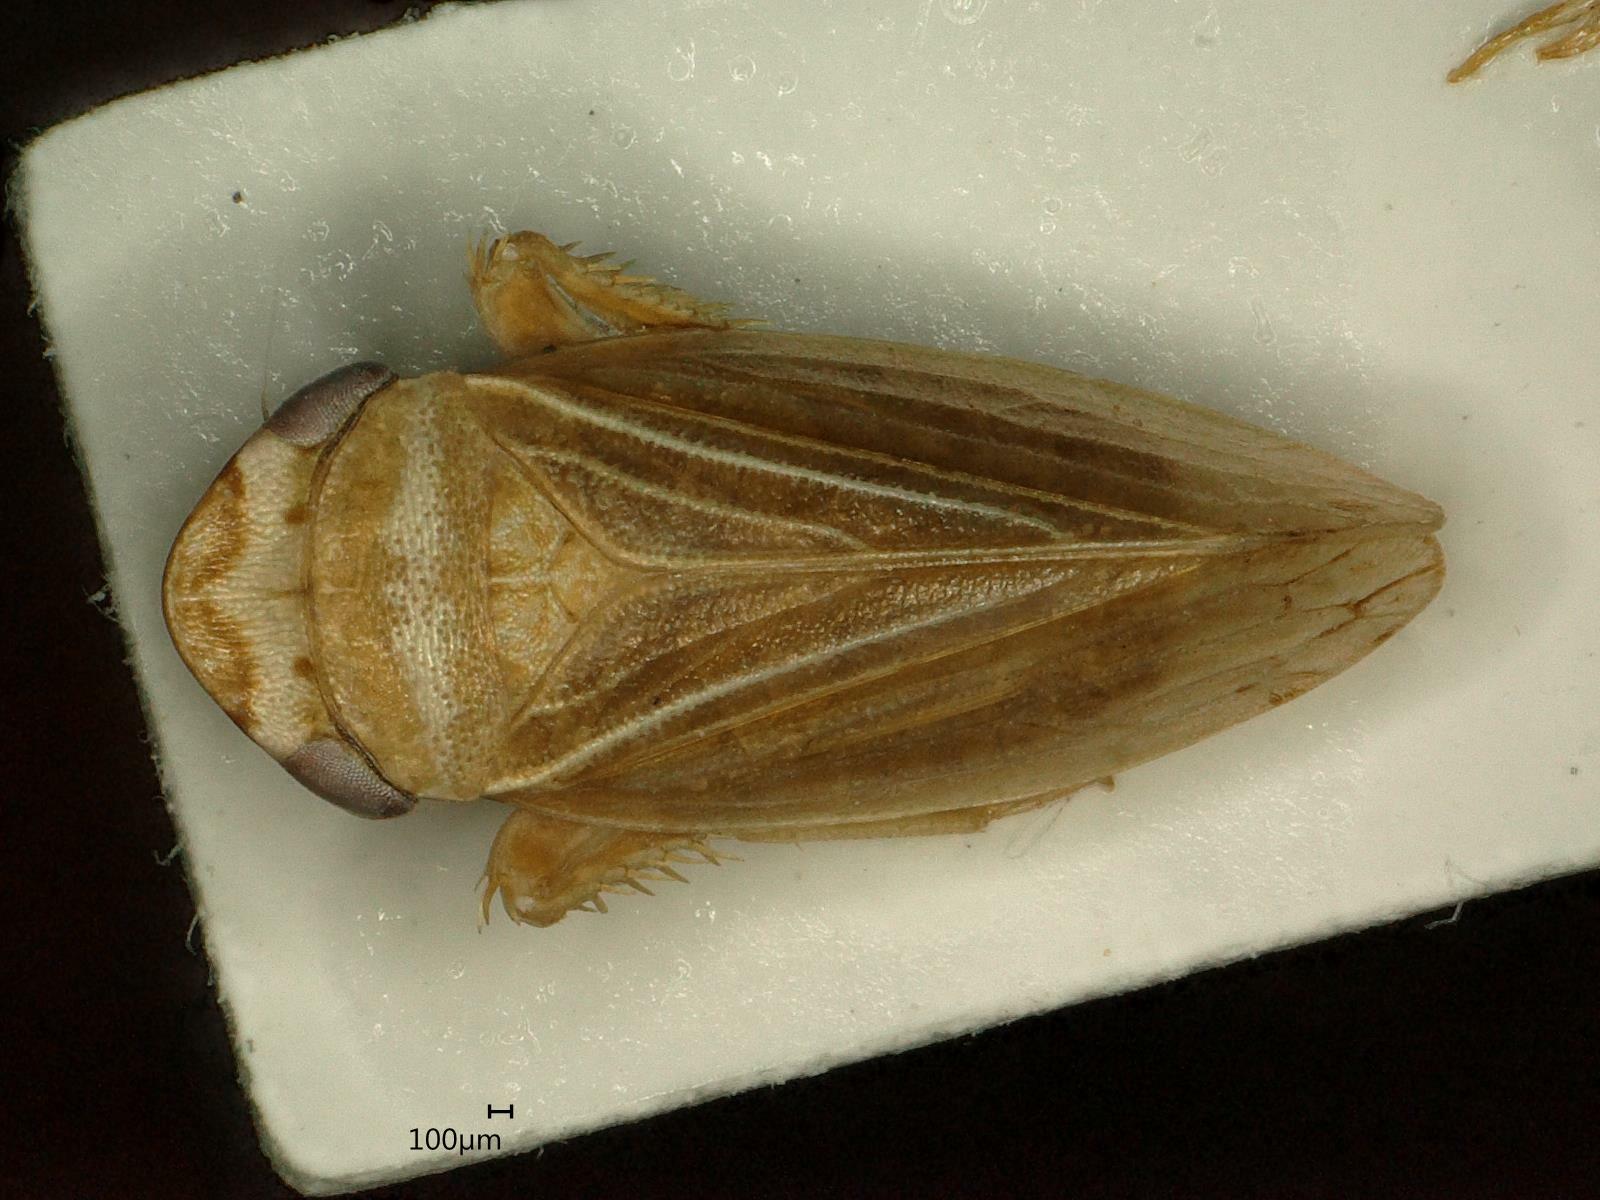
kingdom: Animalia
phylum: Arthropoda
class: Insecta
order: Hemiptera
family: Cicadellidae
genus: Aphrodes
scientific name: Aphrodes makarovi
